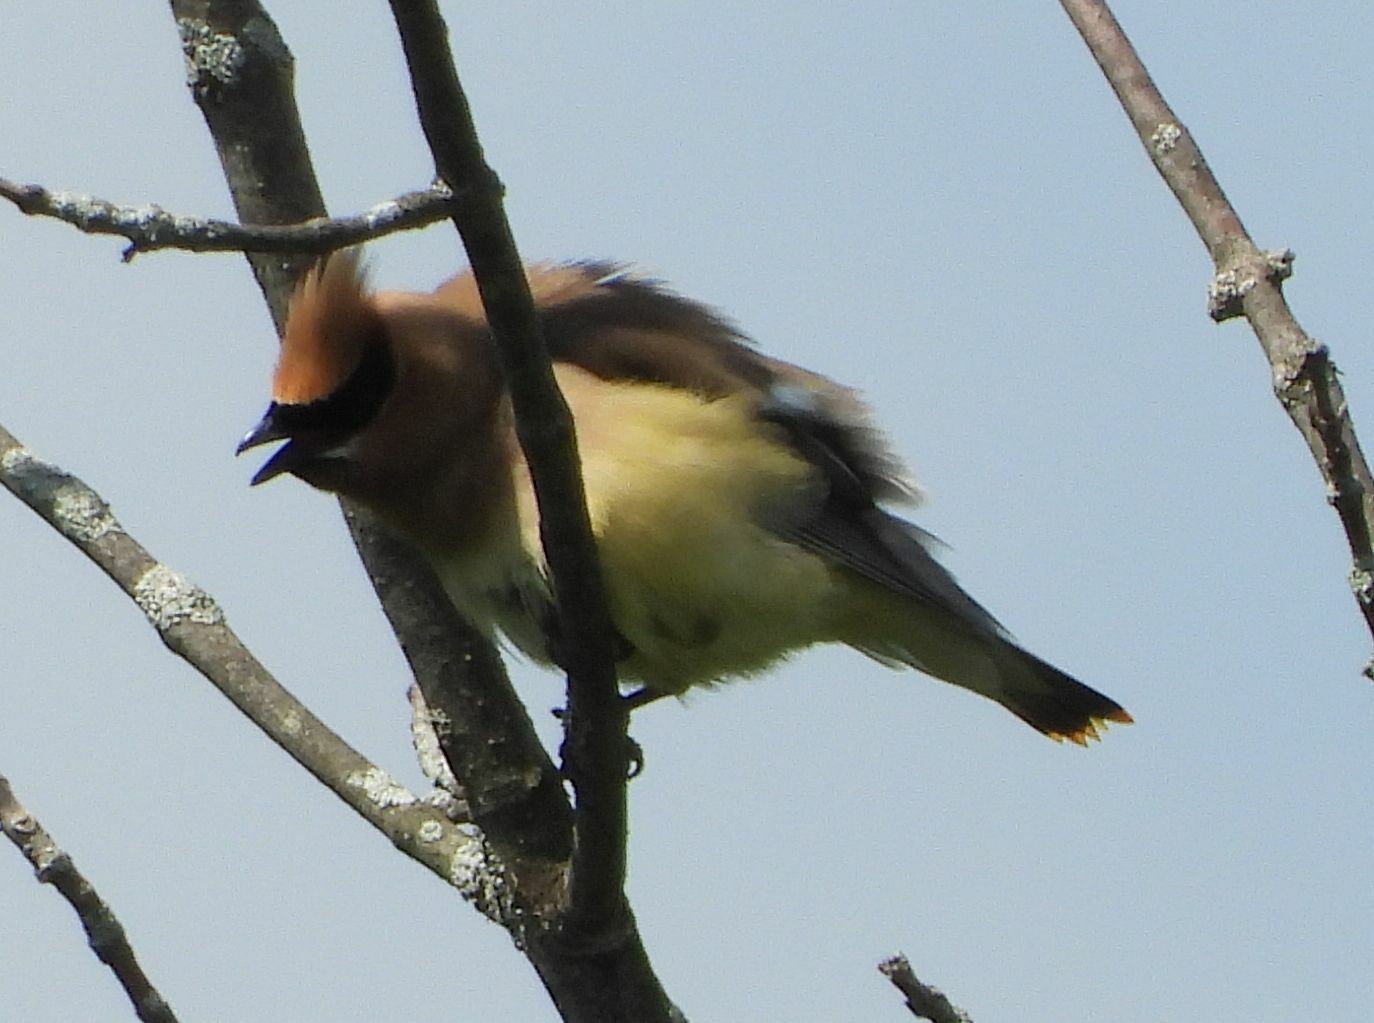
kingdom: Animalia
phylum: Chordata
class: Aves
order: Passeriformes
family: Bombycillidae
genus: Bombycilla
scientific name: Bombycilla cedrorum
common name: Cedar waxwing
